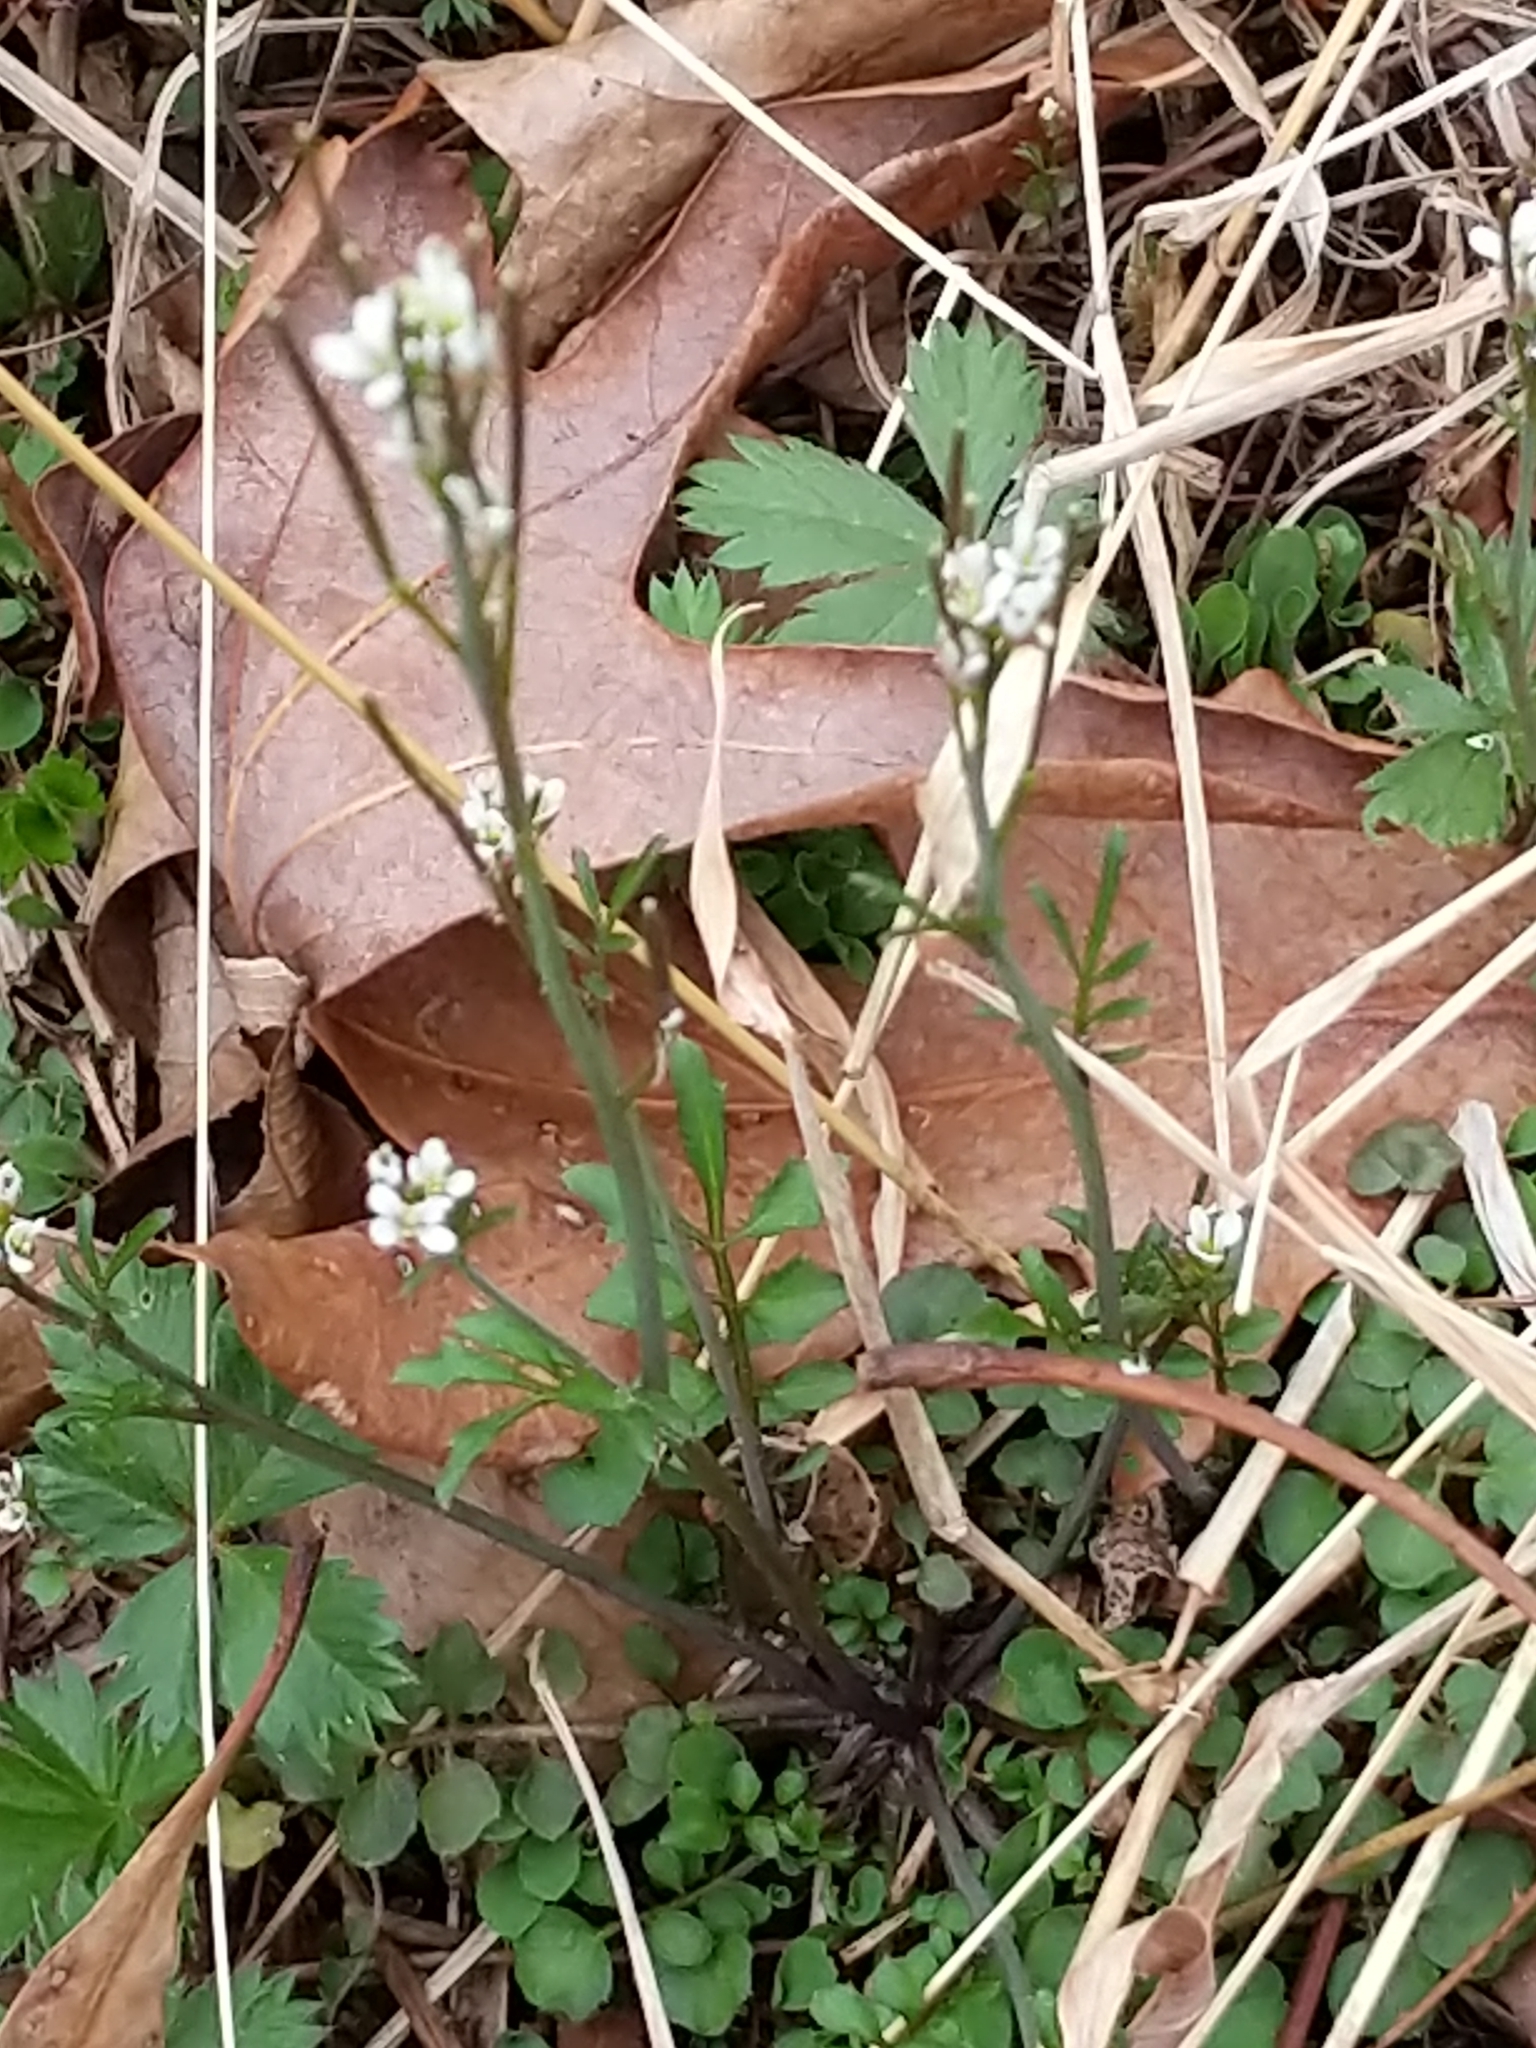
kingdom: Plantae
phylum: Tracheophyta
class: Magnoliopsida
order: Brassicales
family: Brassicaceae
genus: Cardamine
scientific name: Cardamine hirsuta
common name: Hairy bittercress
